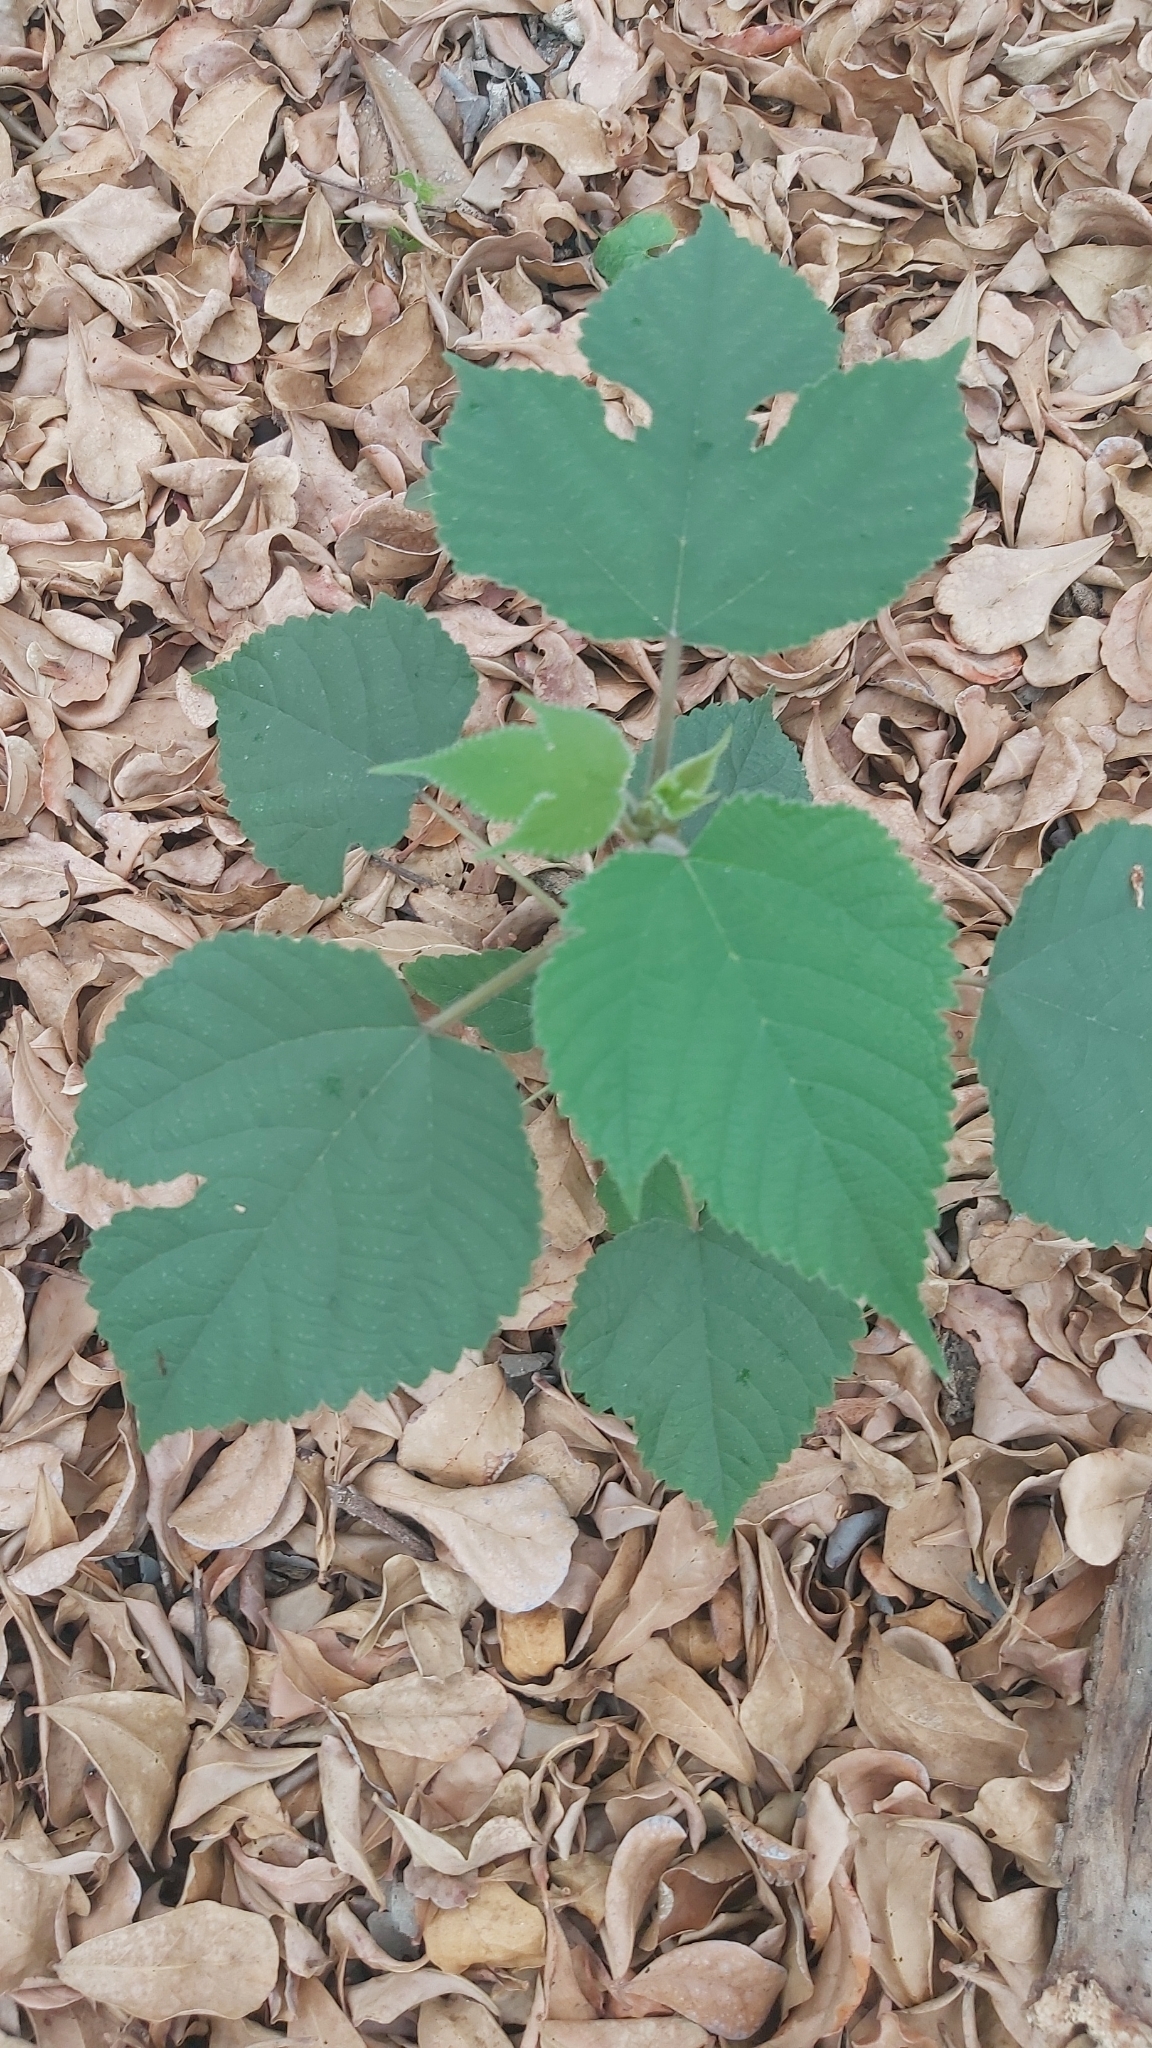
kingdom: Plantae
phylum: Tracheophyta
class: Magnoliopsida
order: Rosales
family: Moraceae
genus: Broussonetia
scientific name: Broussonetia papyrifera
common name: Paper mulberry
